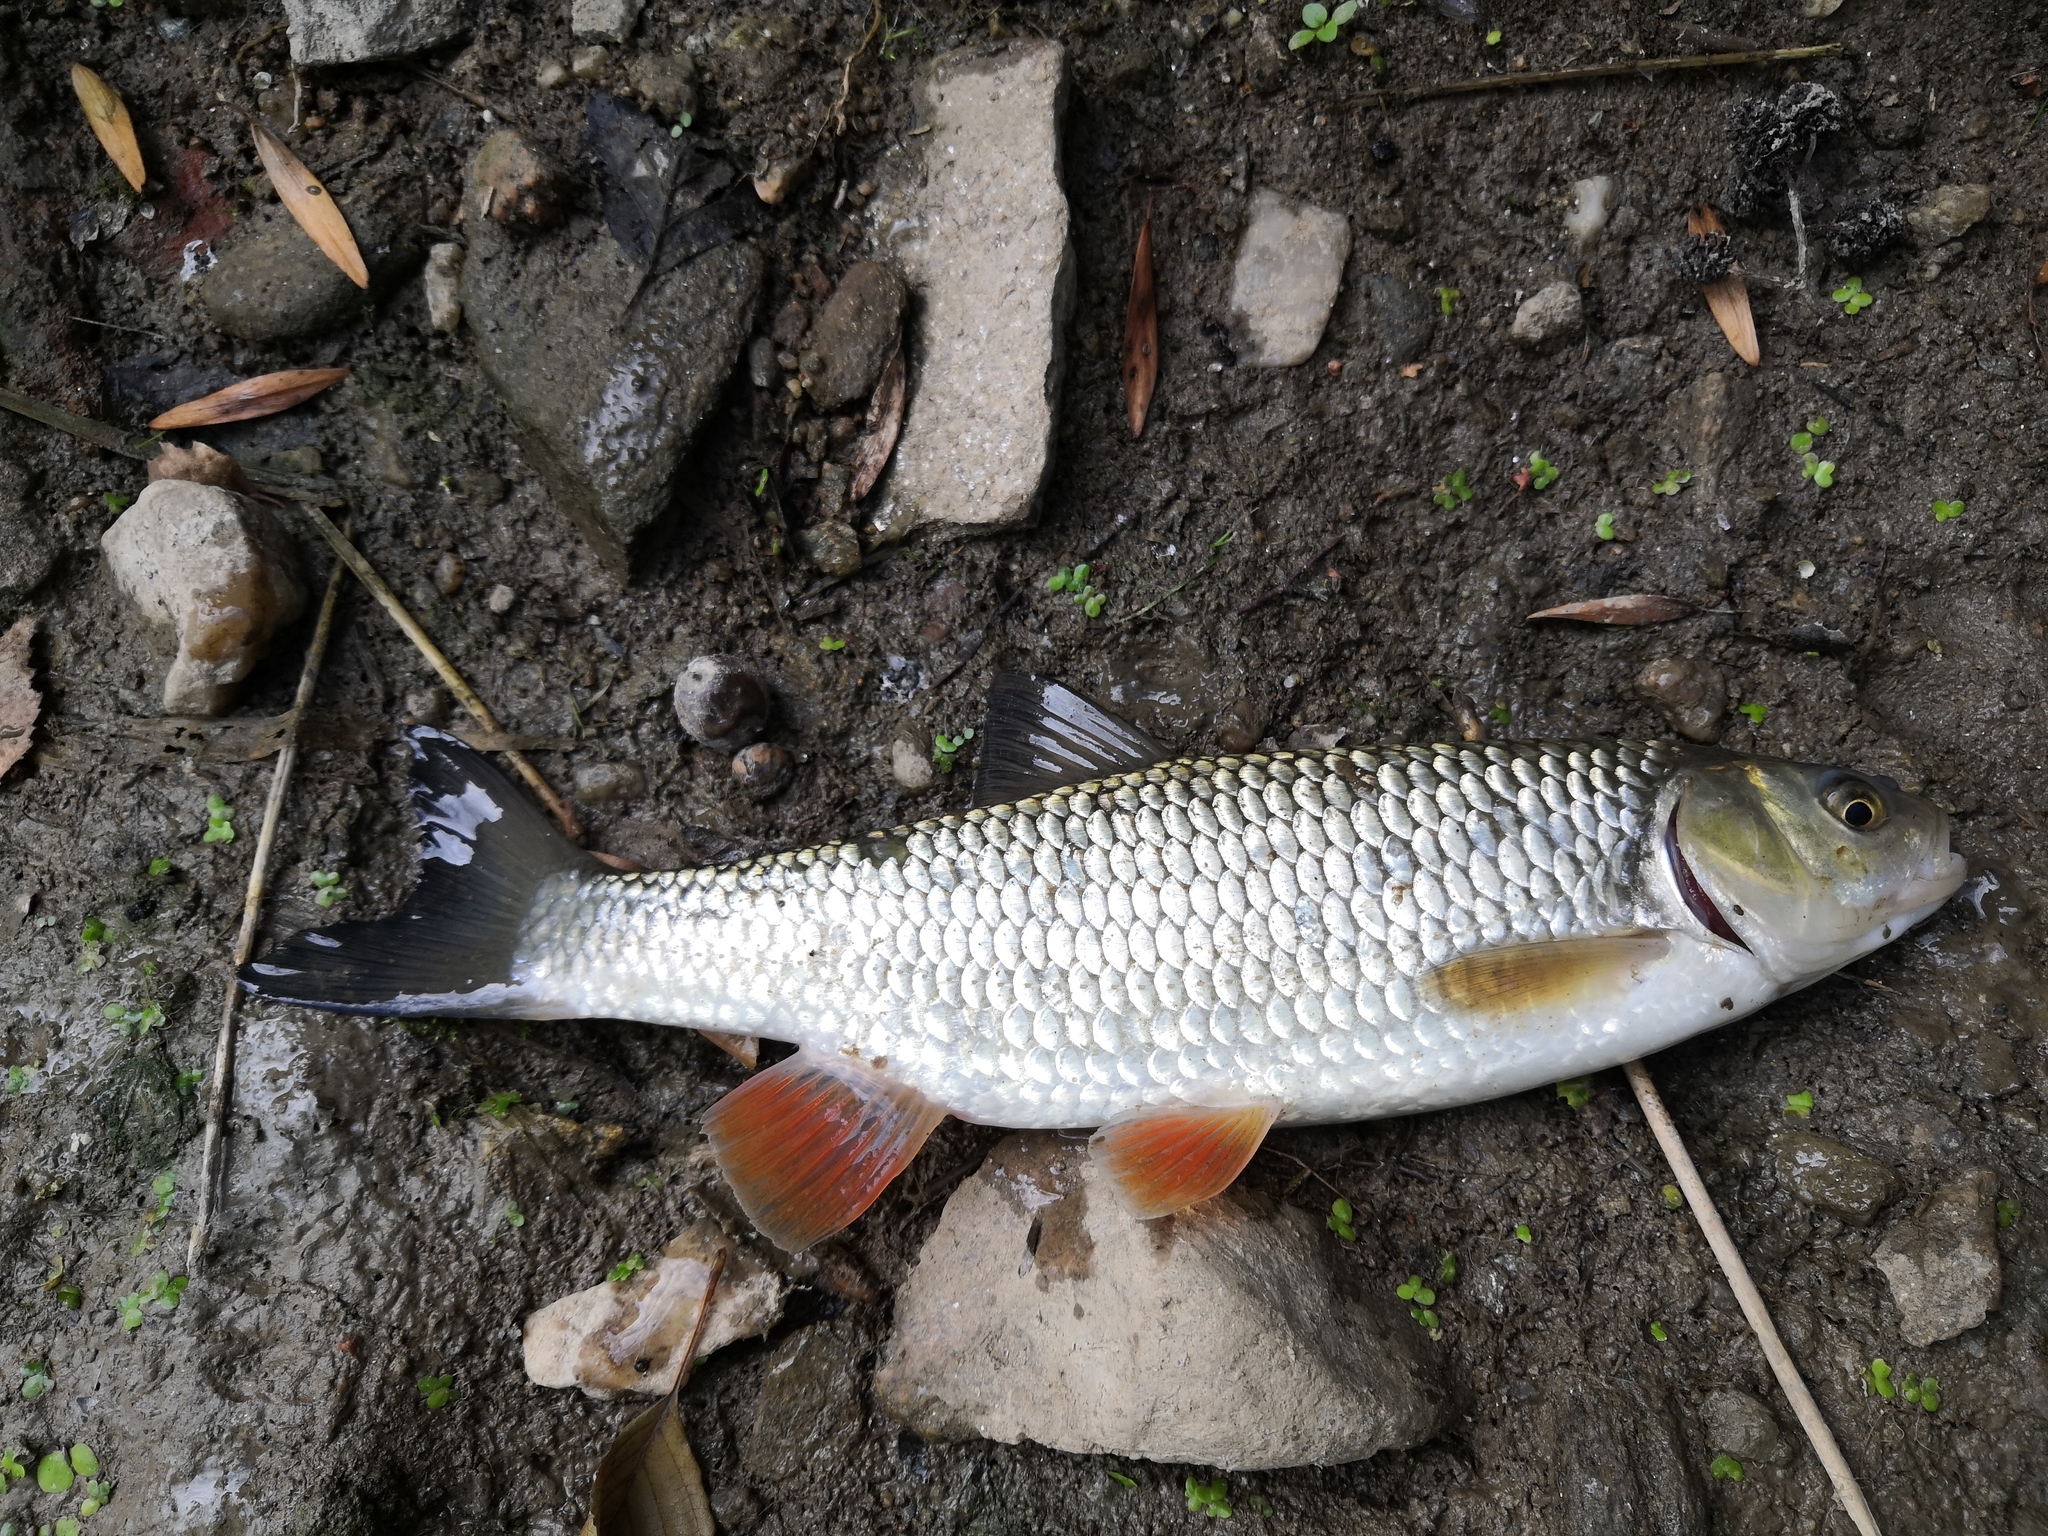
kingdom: Animalia
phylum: Chordata
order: Cypriniformes
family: Cyprinidae
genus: Squalius
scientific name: Squalius cephalus
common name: Chub
